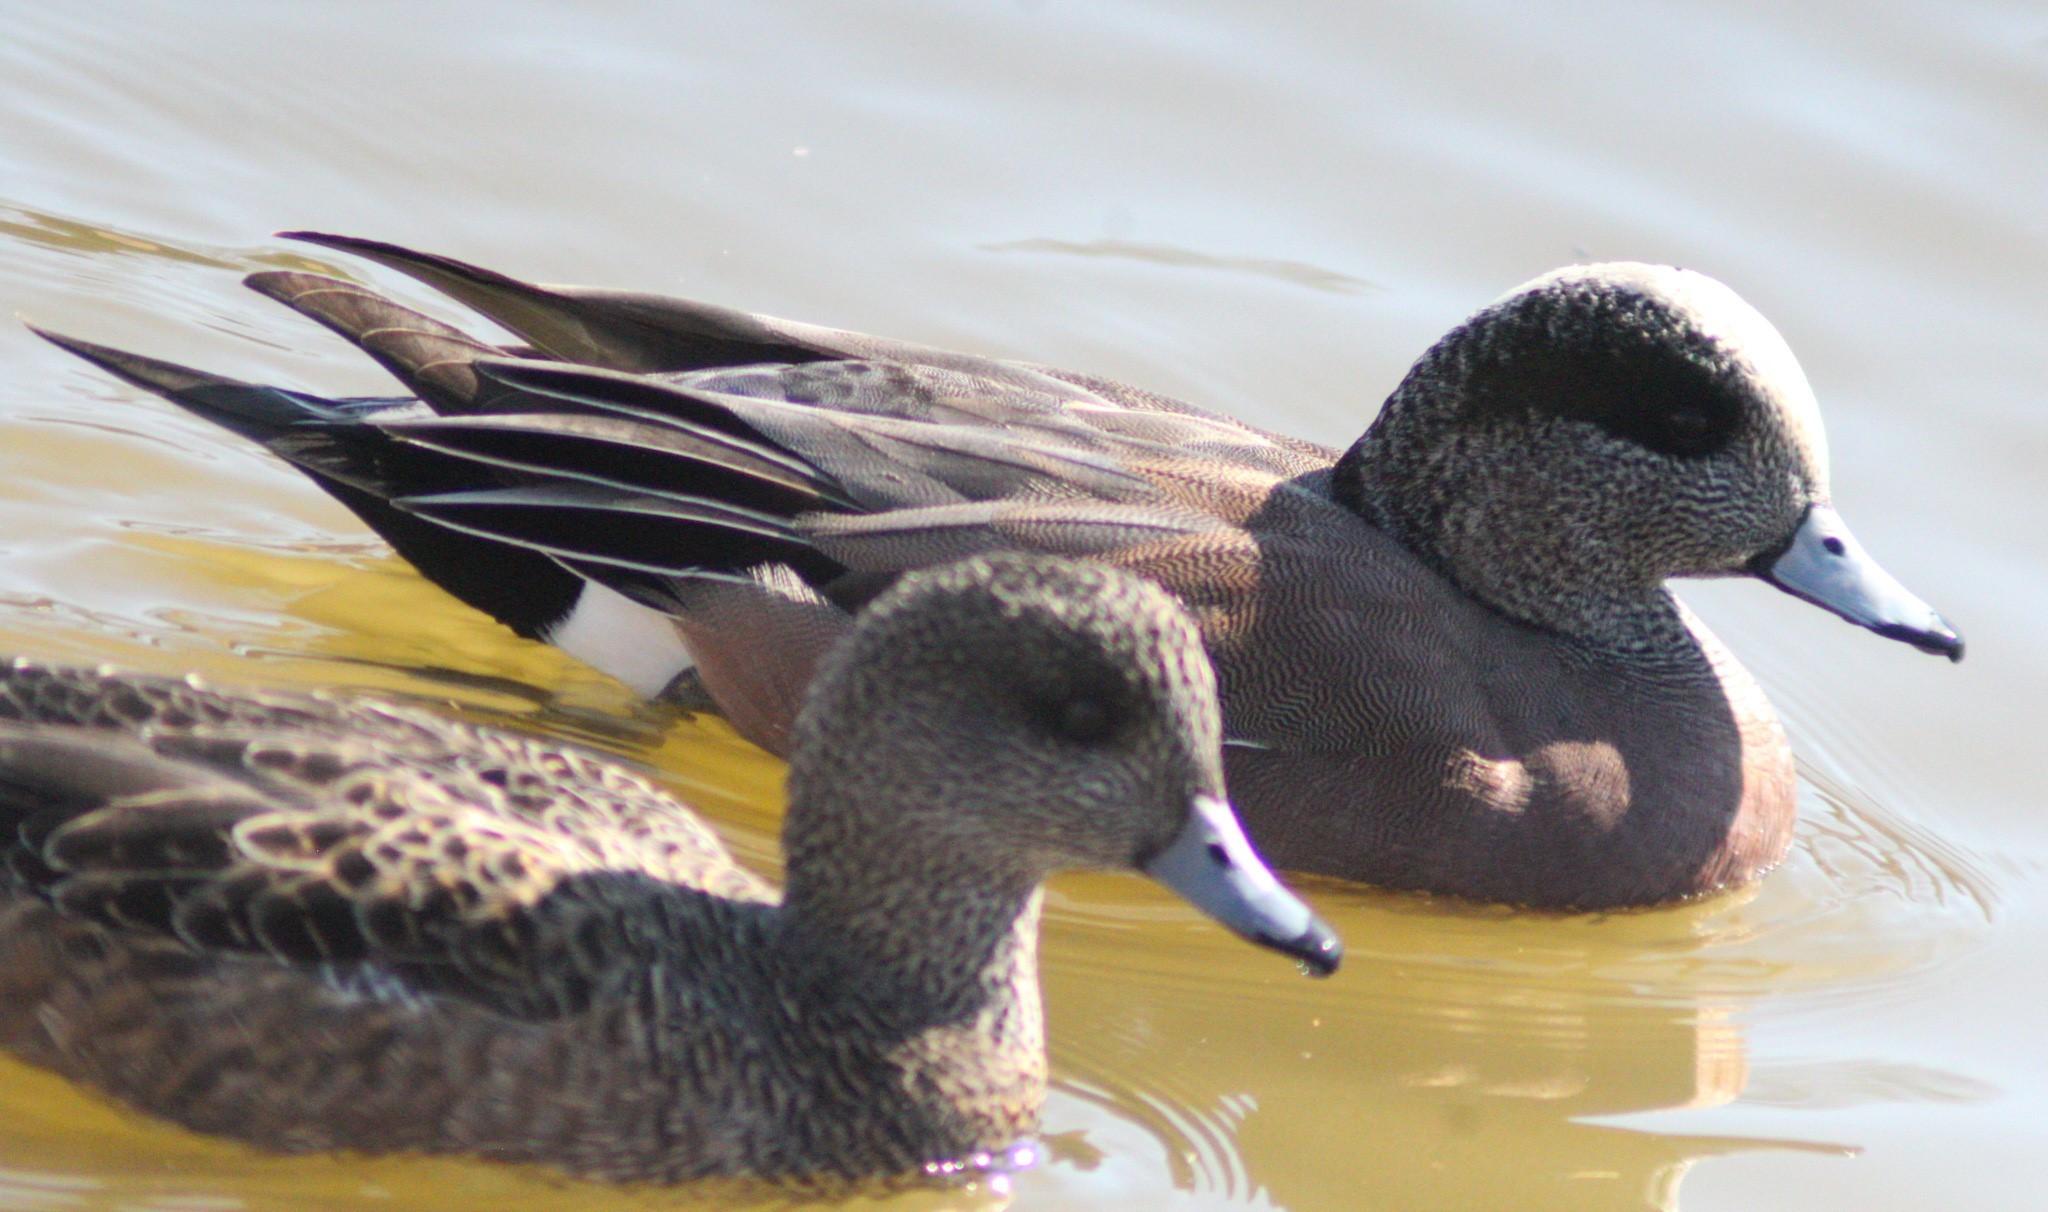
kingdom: Animalia
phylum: Chordata
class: Aves
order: Anseriformes
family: Anatidae
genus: Mareca
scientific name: Mareca americana
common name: American wigeon
